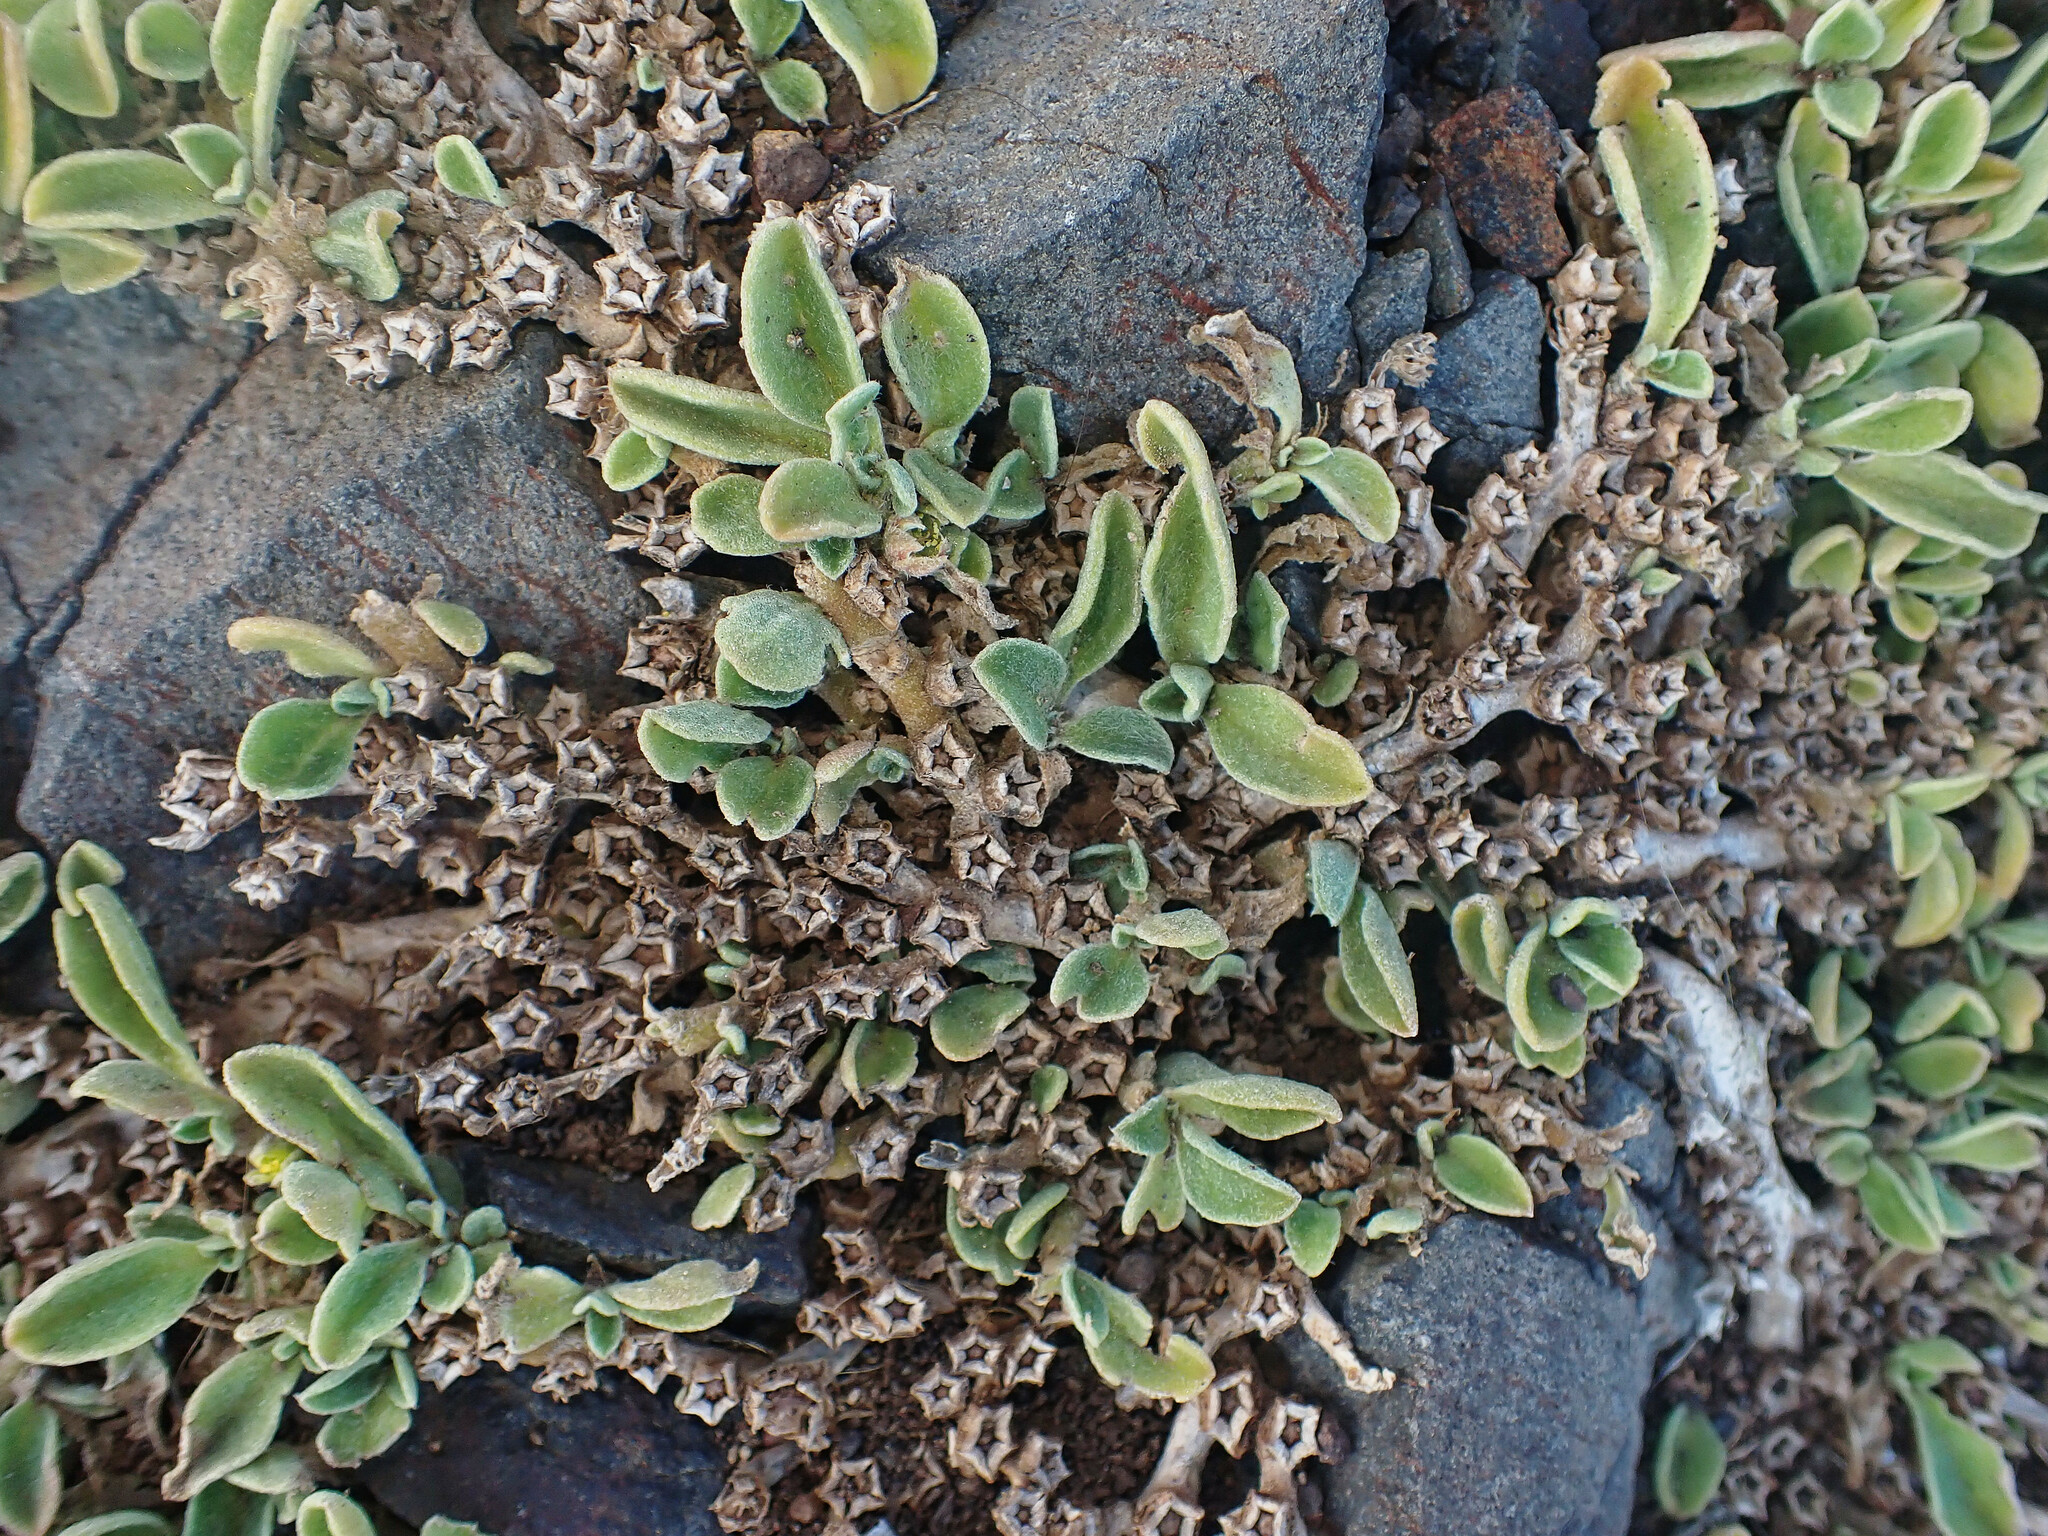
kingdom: Plantae
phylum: Tracheophyta
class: Magnoliopsida
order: Caryophyllales
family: Aizoaceae
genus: Aizoon
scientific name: Aizoon canariense
